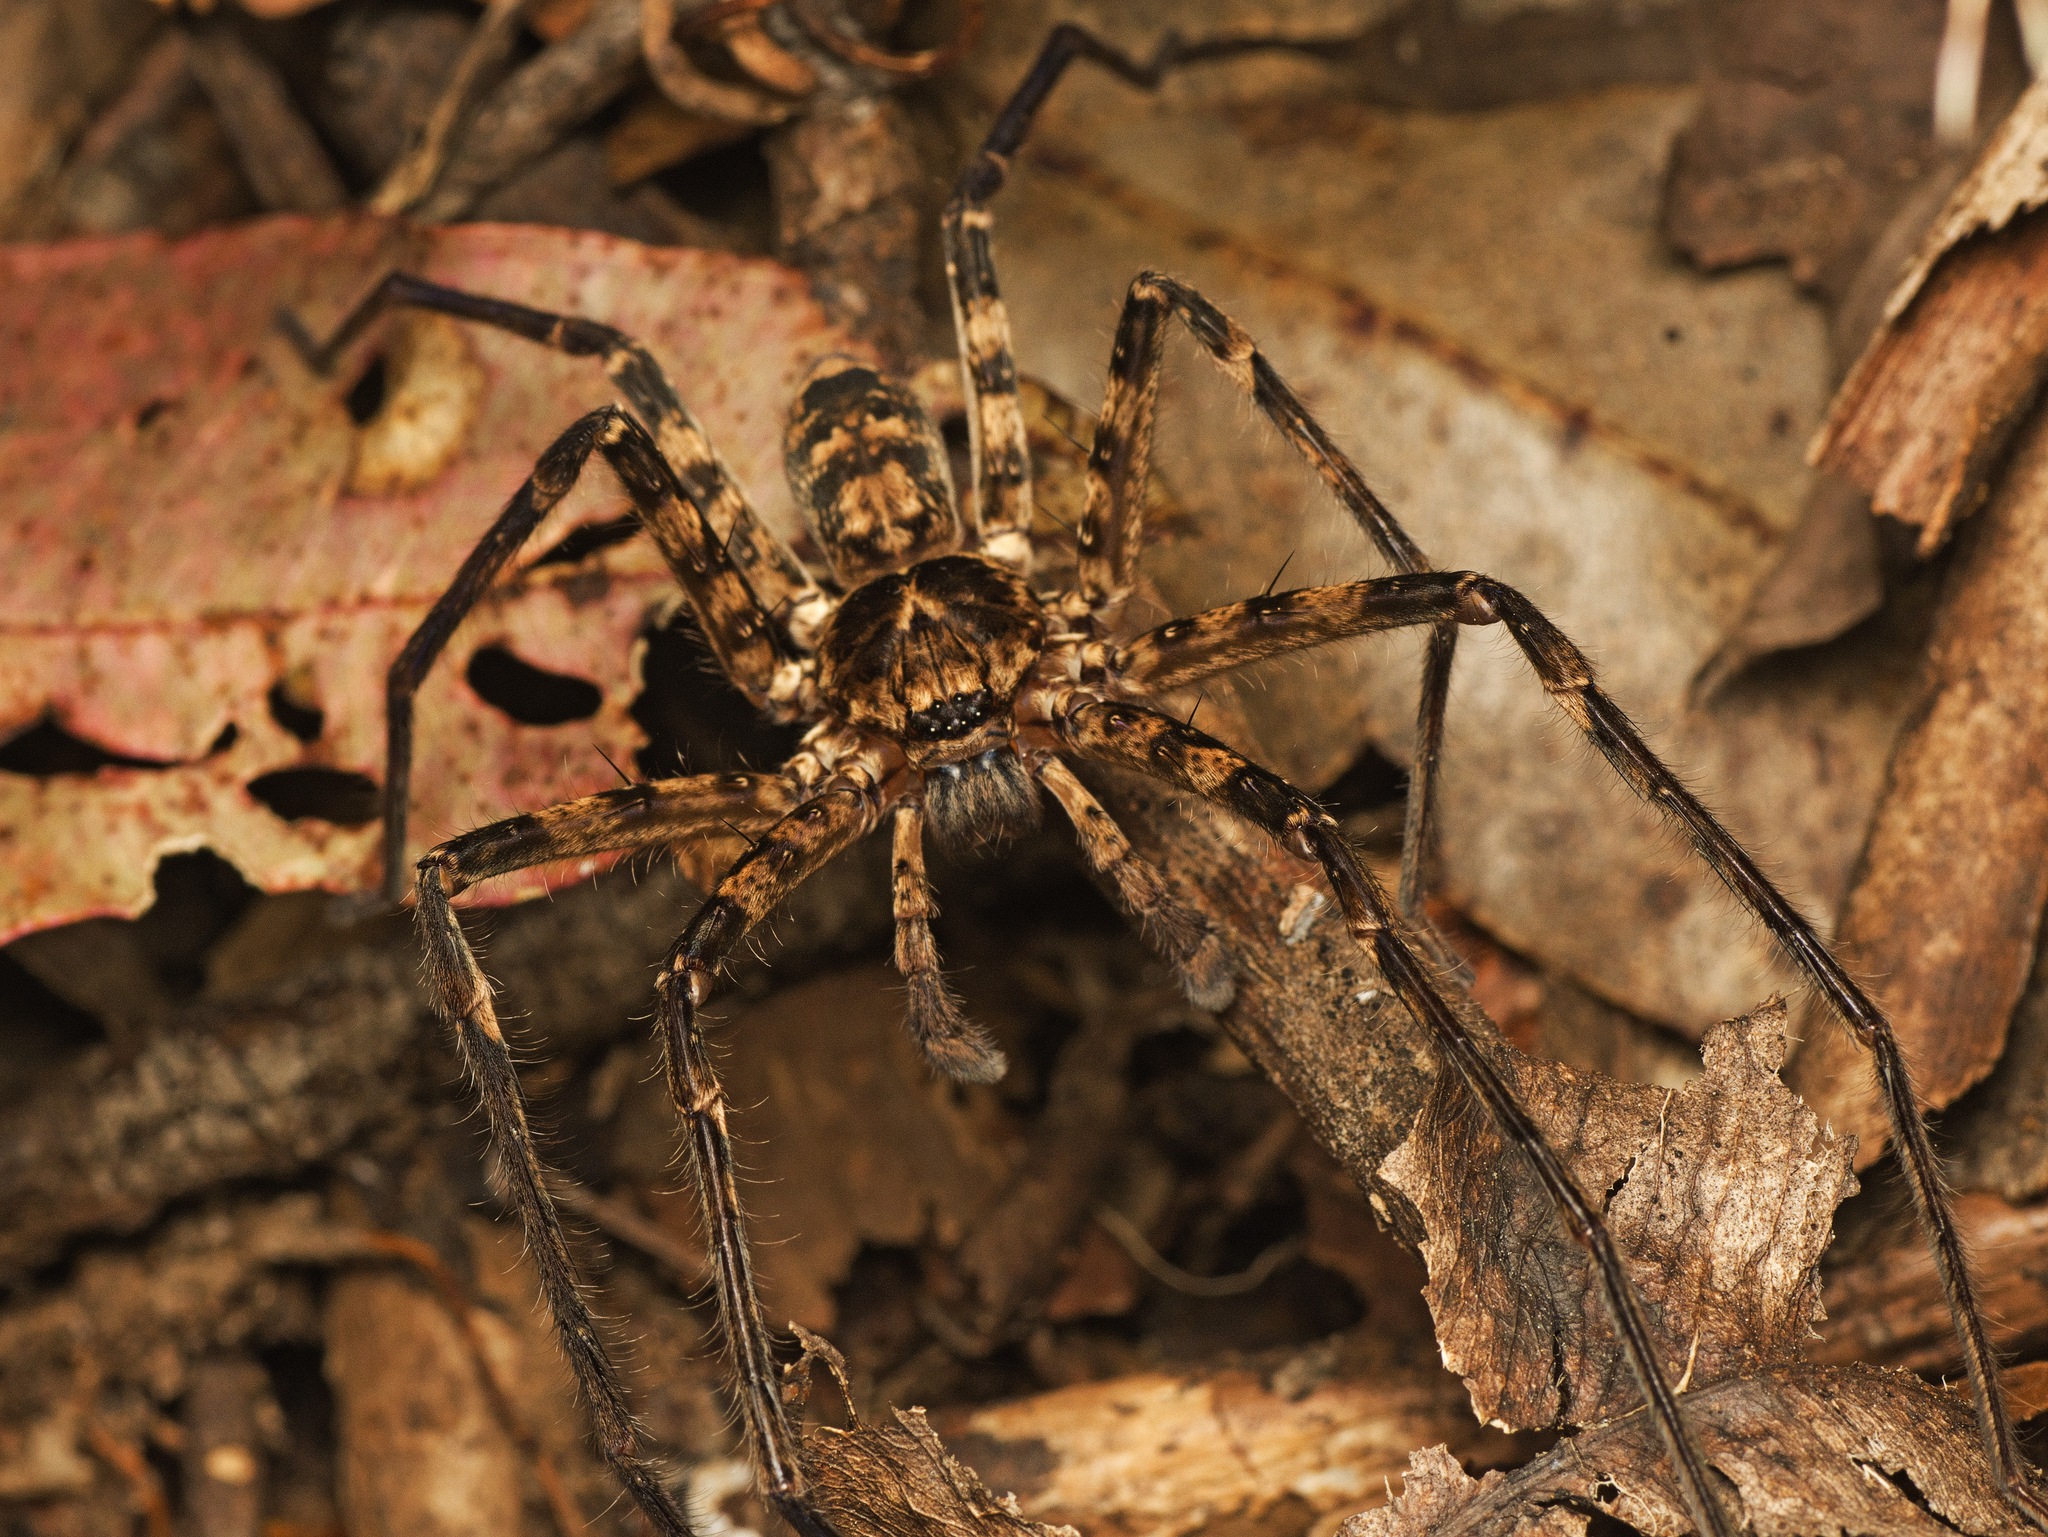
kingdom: Animalia
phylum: Arthropoda
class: Arachnida
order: Araneae
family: Sparassidae
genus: Heteropoda
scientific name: Heteropoda procera
